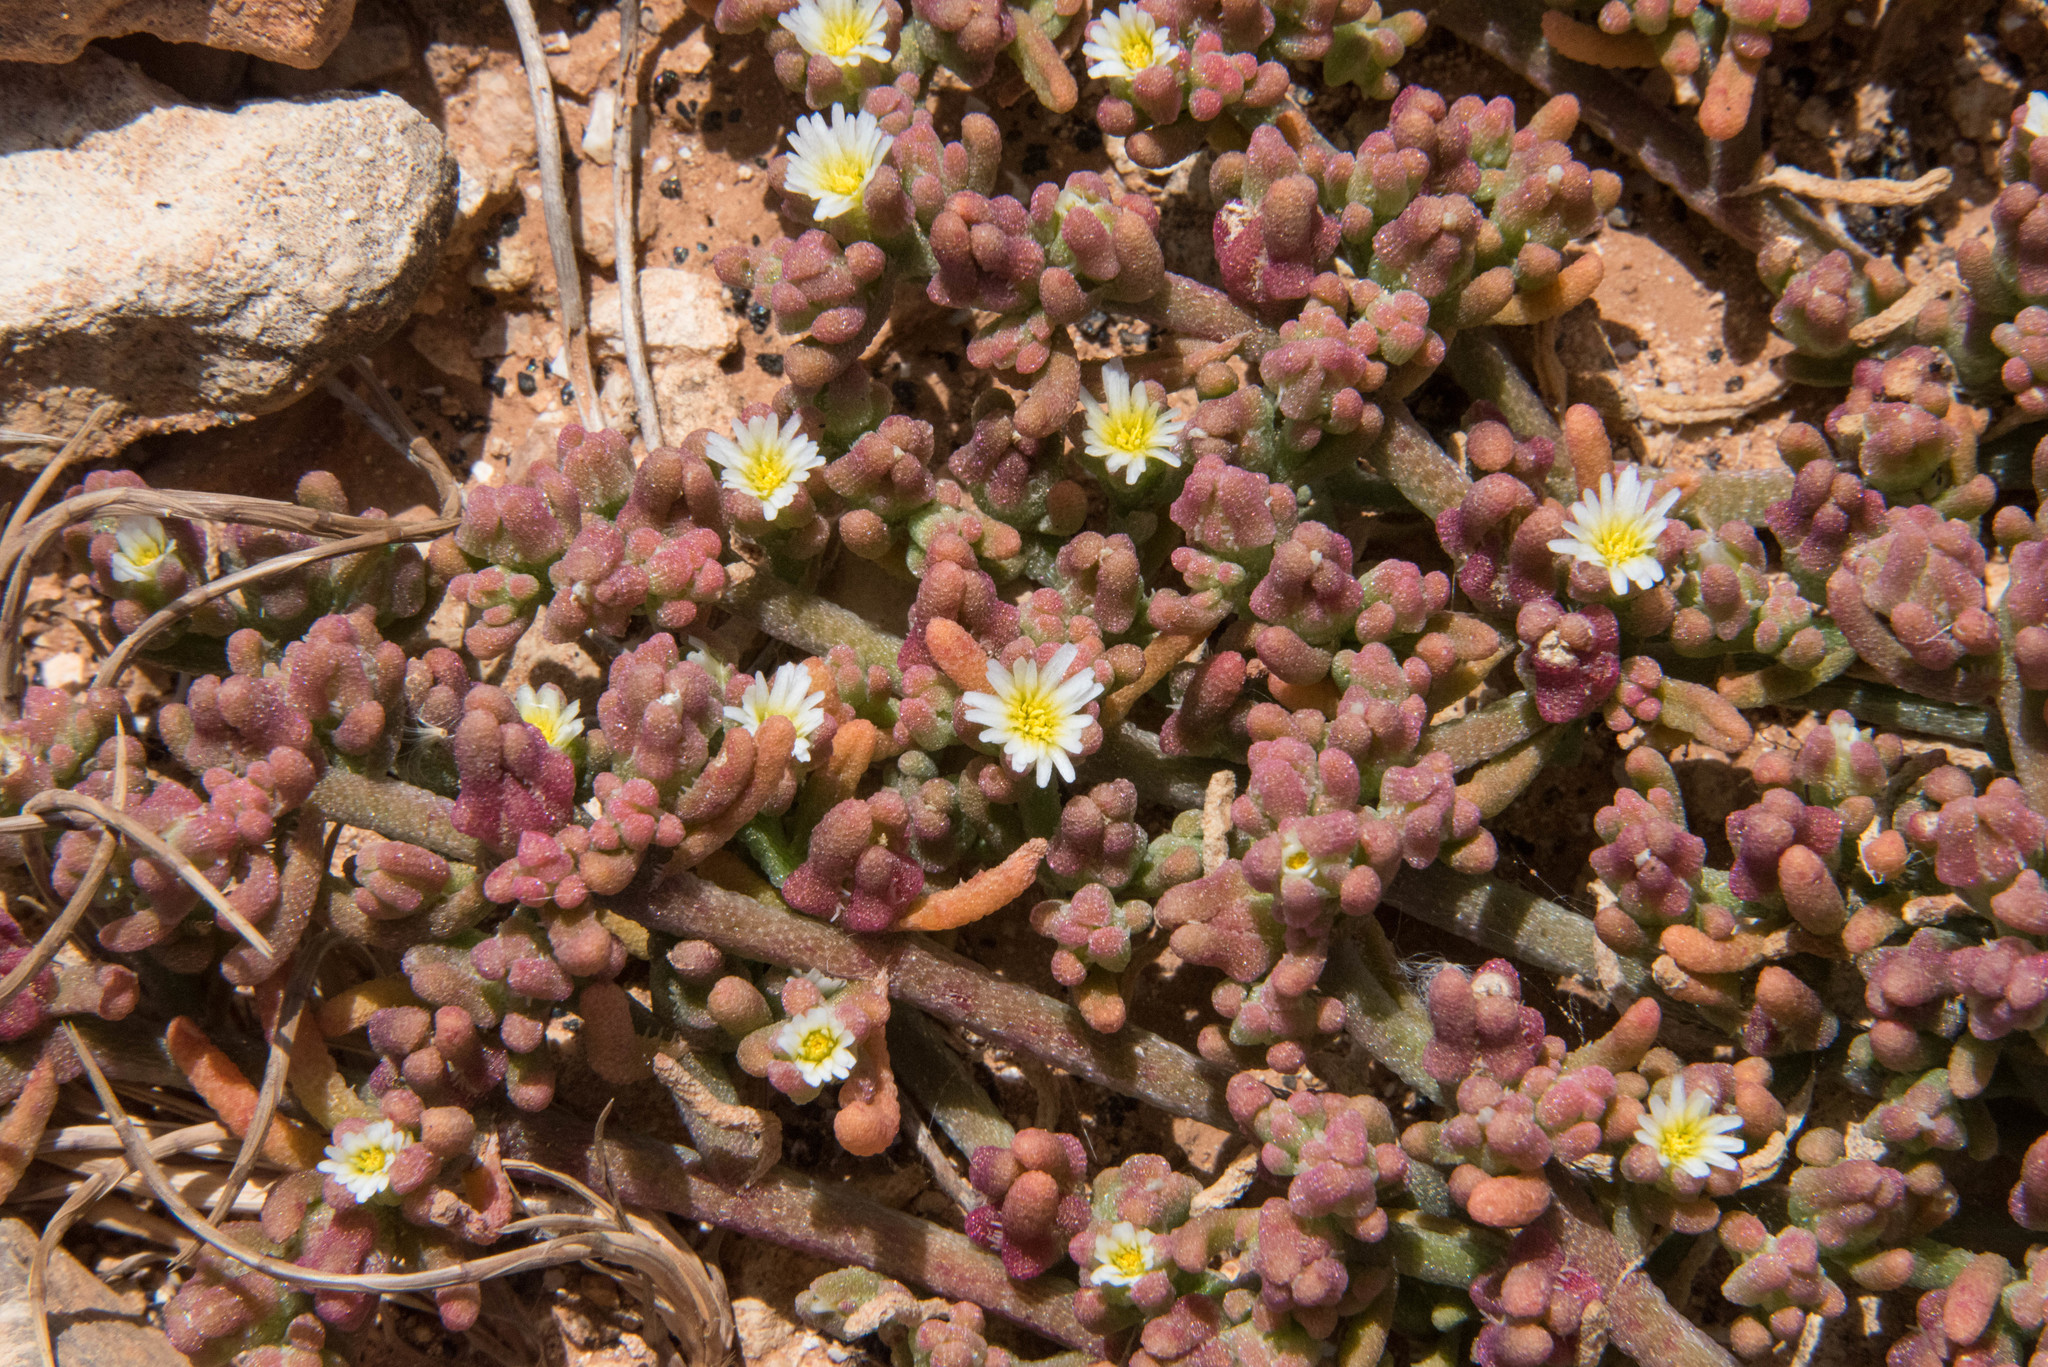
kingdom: Plantae
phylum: Tracheophyta
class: Magnoliopsida
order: Caryophyllales
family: Aizoaceae
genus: Mesembryanthemum
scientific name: Mesembryanthemum nodiflorum
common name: Slenderleaf iceplant
